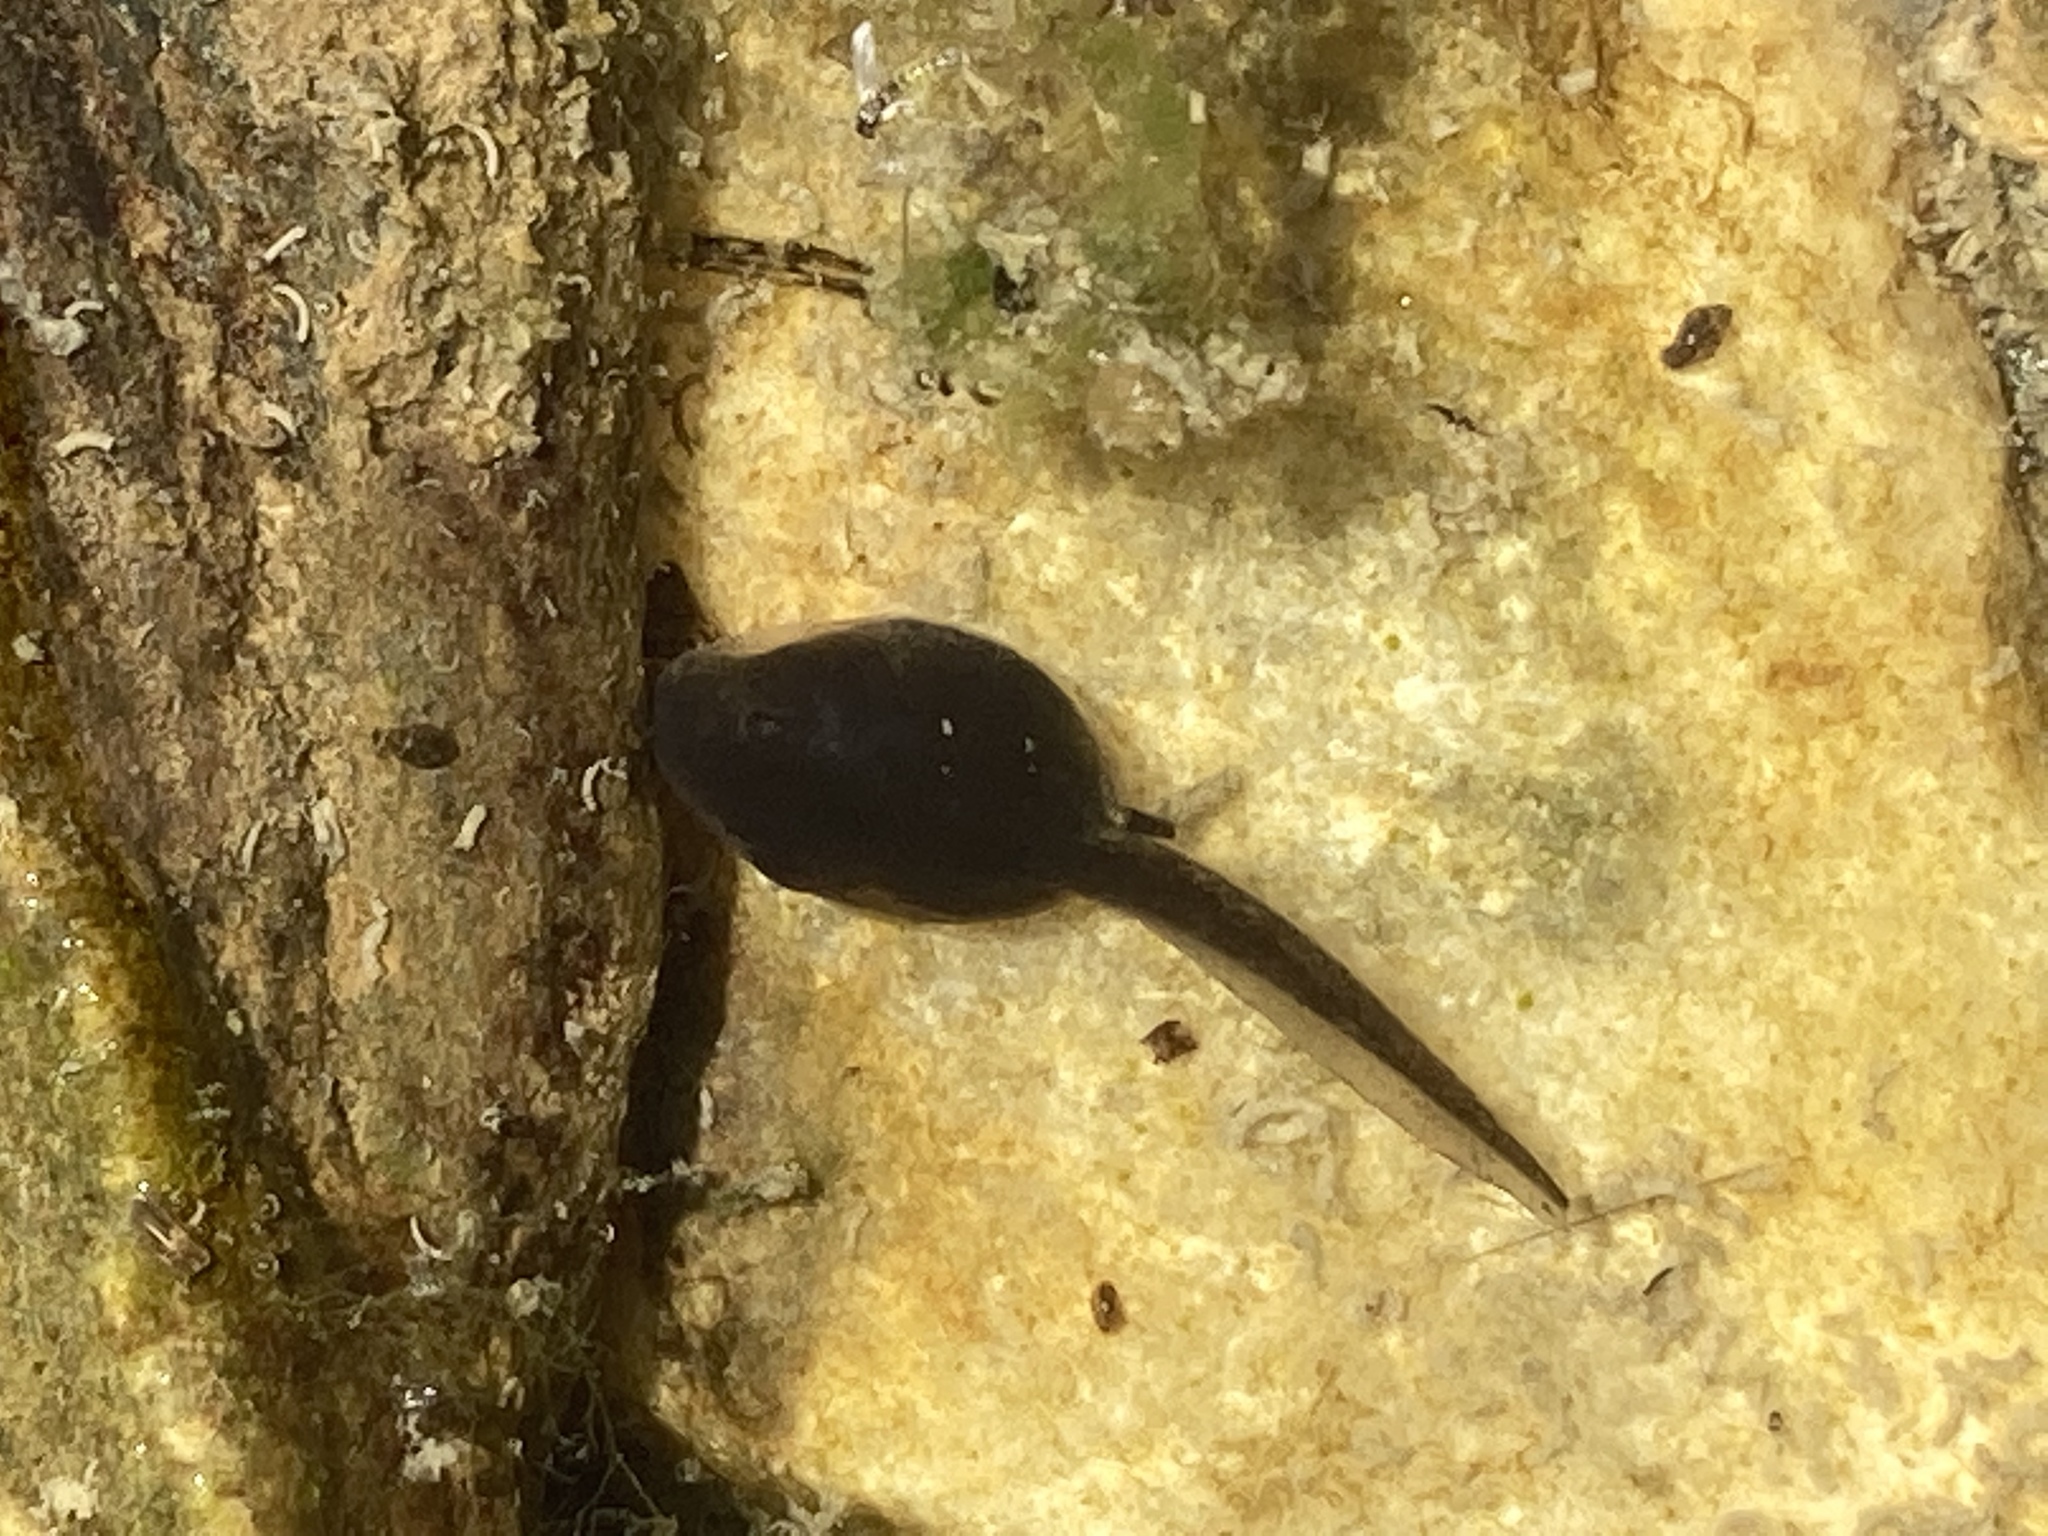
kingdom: Animalia
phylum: Chordata
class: Amphibia
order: Anura
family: Bufonidae
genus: Bufotes
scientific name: Bufotes viridis
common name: European green toad
